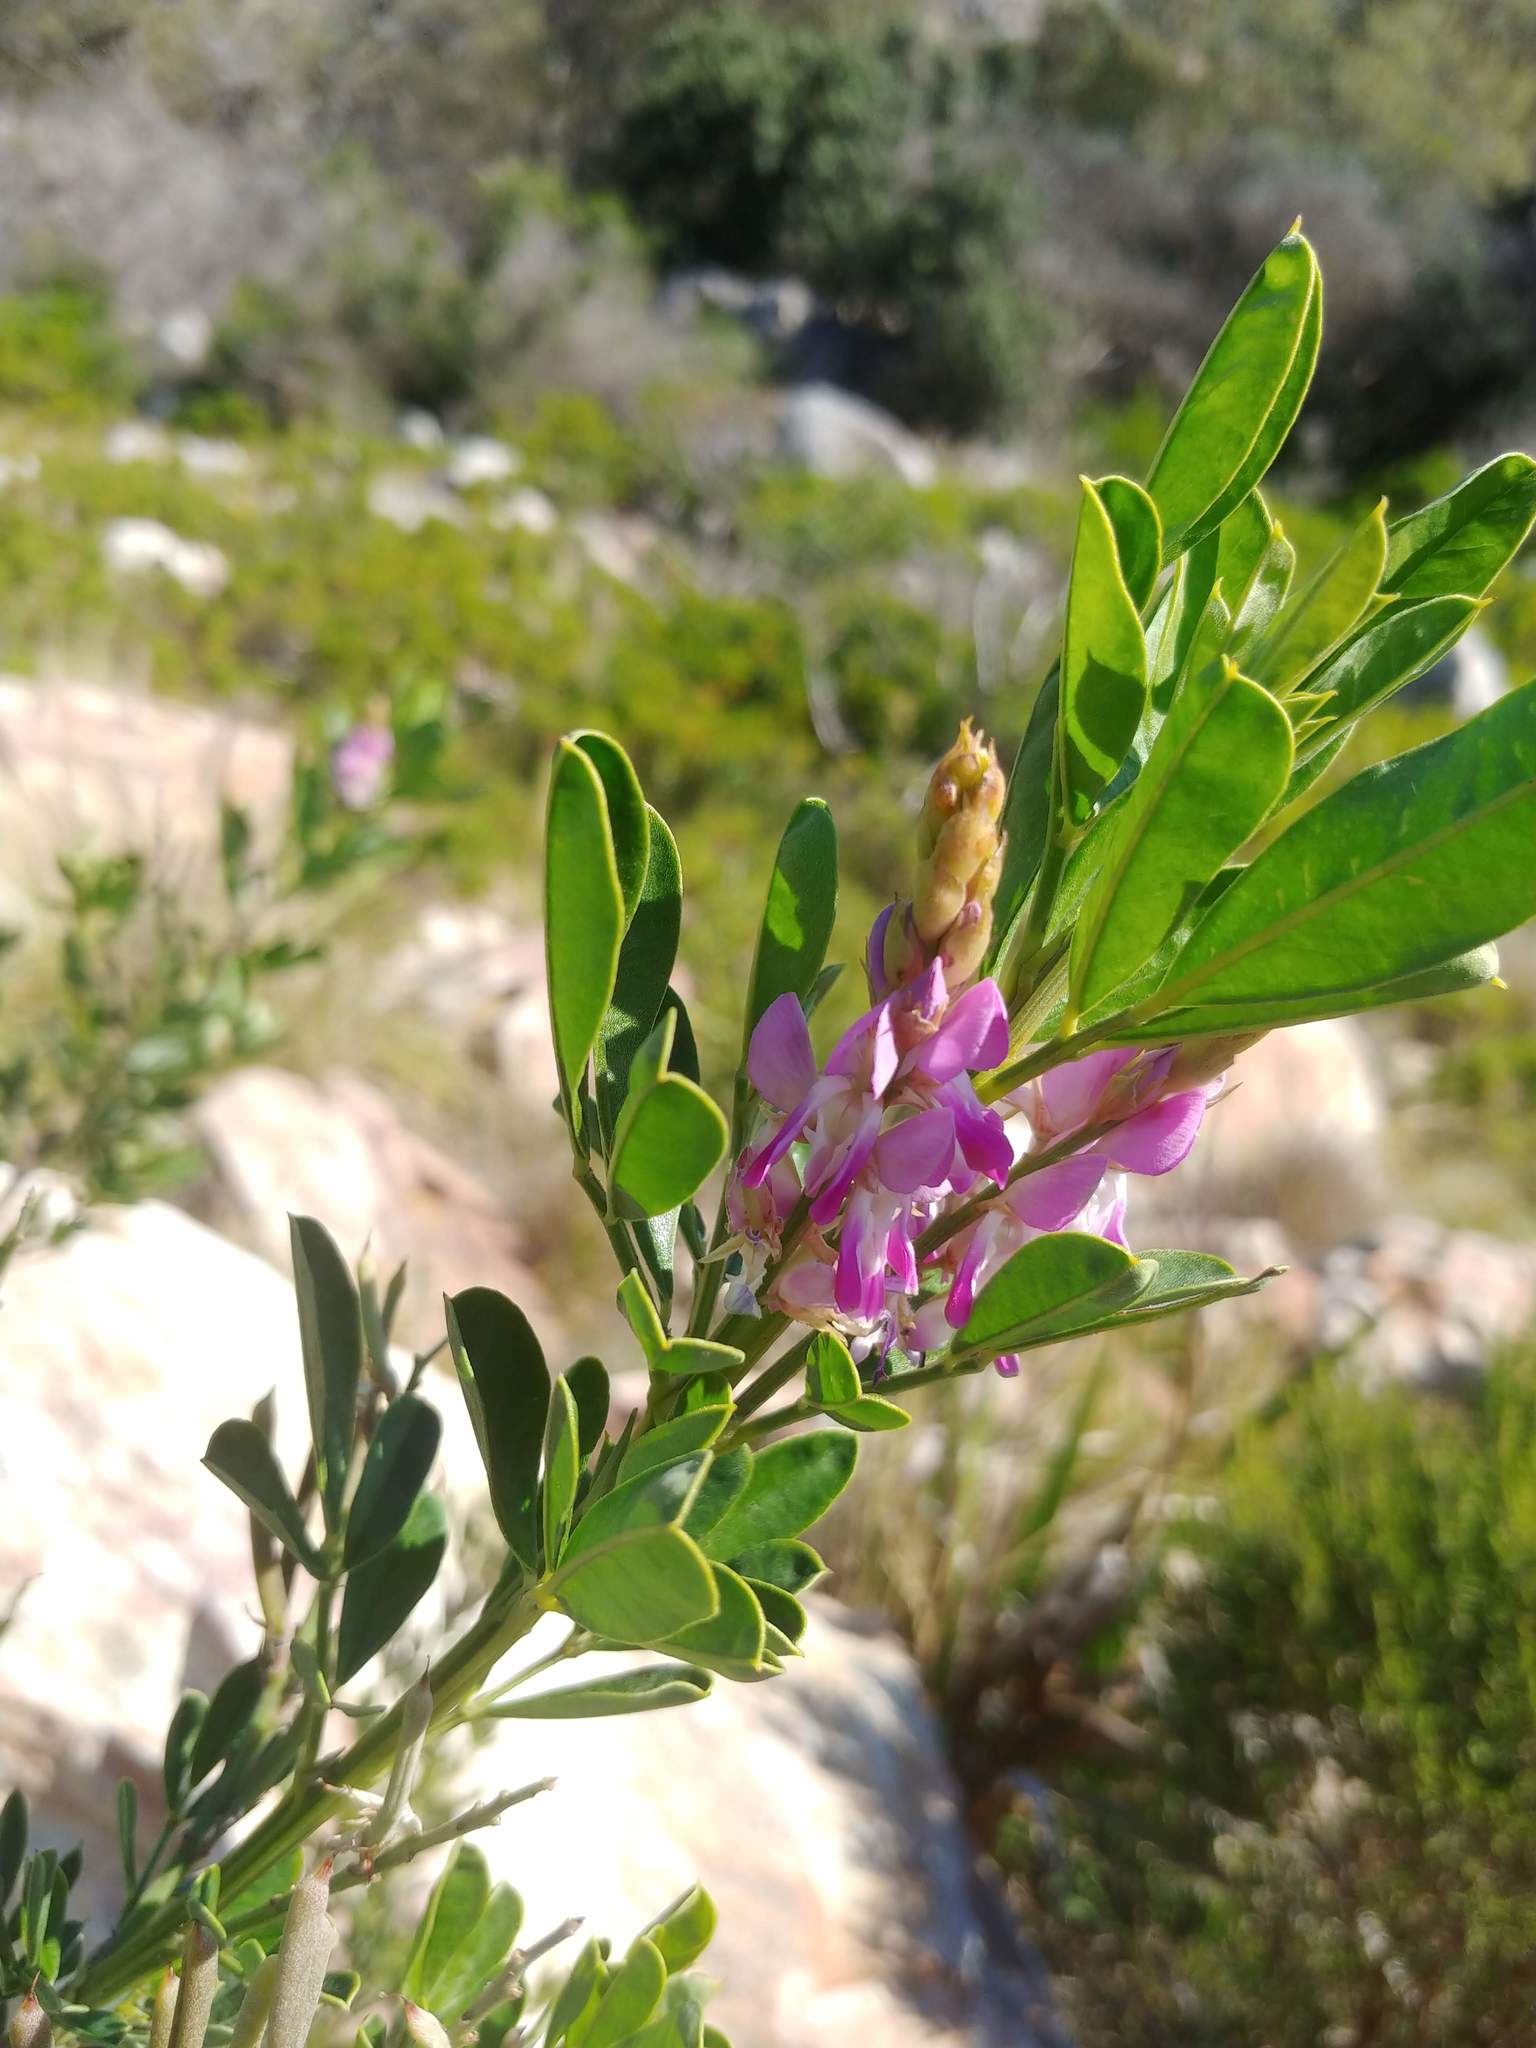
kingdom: Plantae
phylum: Tracheophyta
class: Magnoliopsida
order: Fabales
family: Fabaceae
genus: Indigofera
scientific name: Indigofera cytisoides
